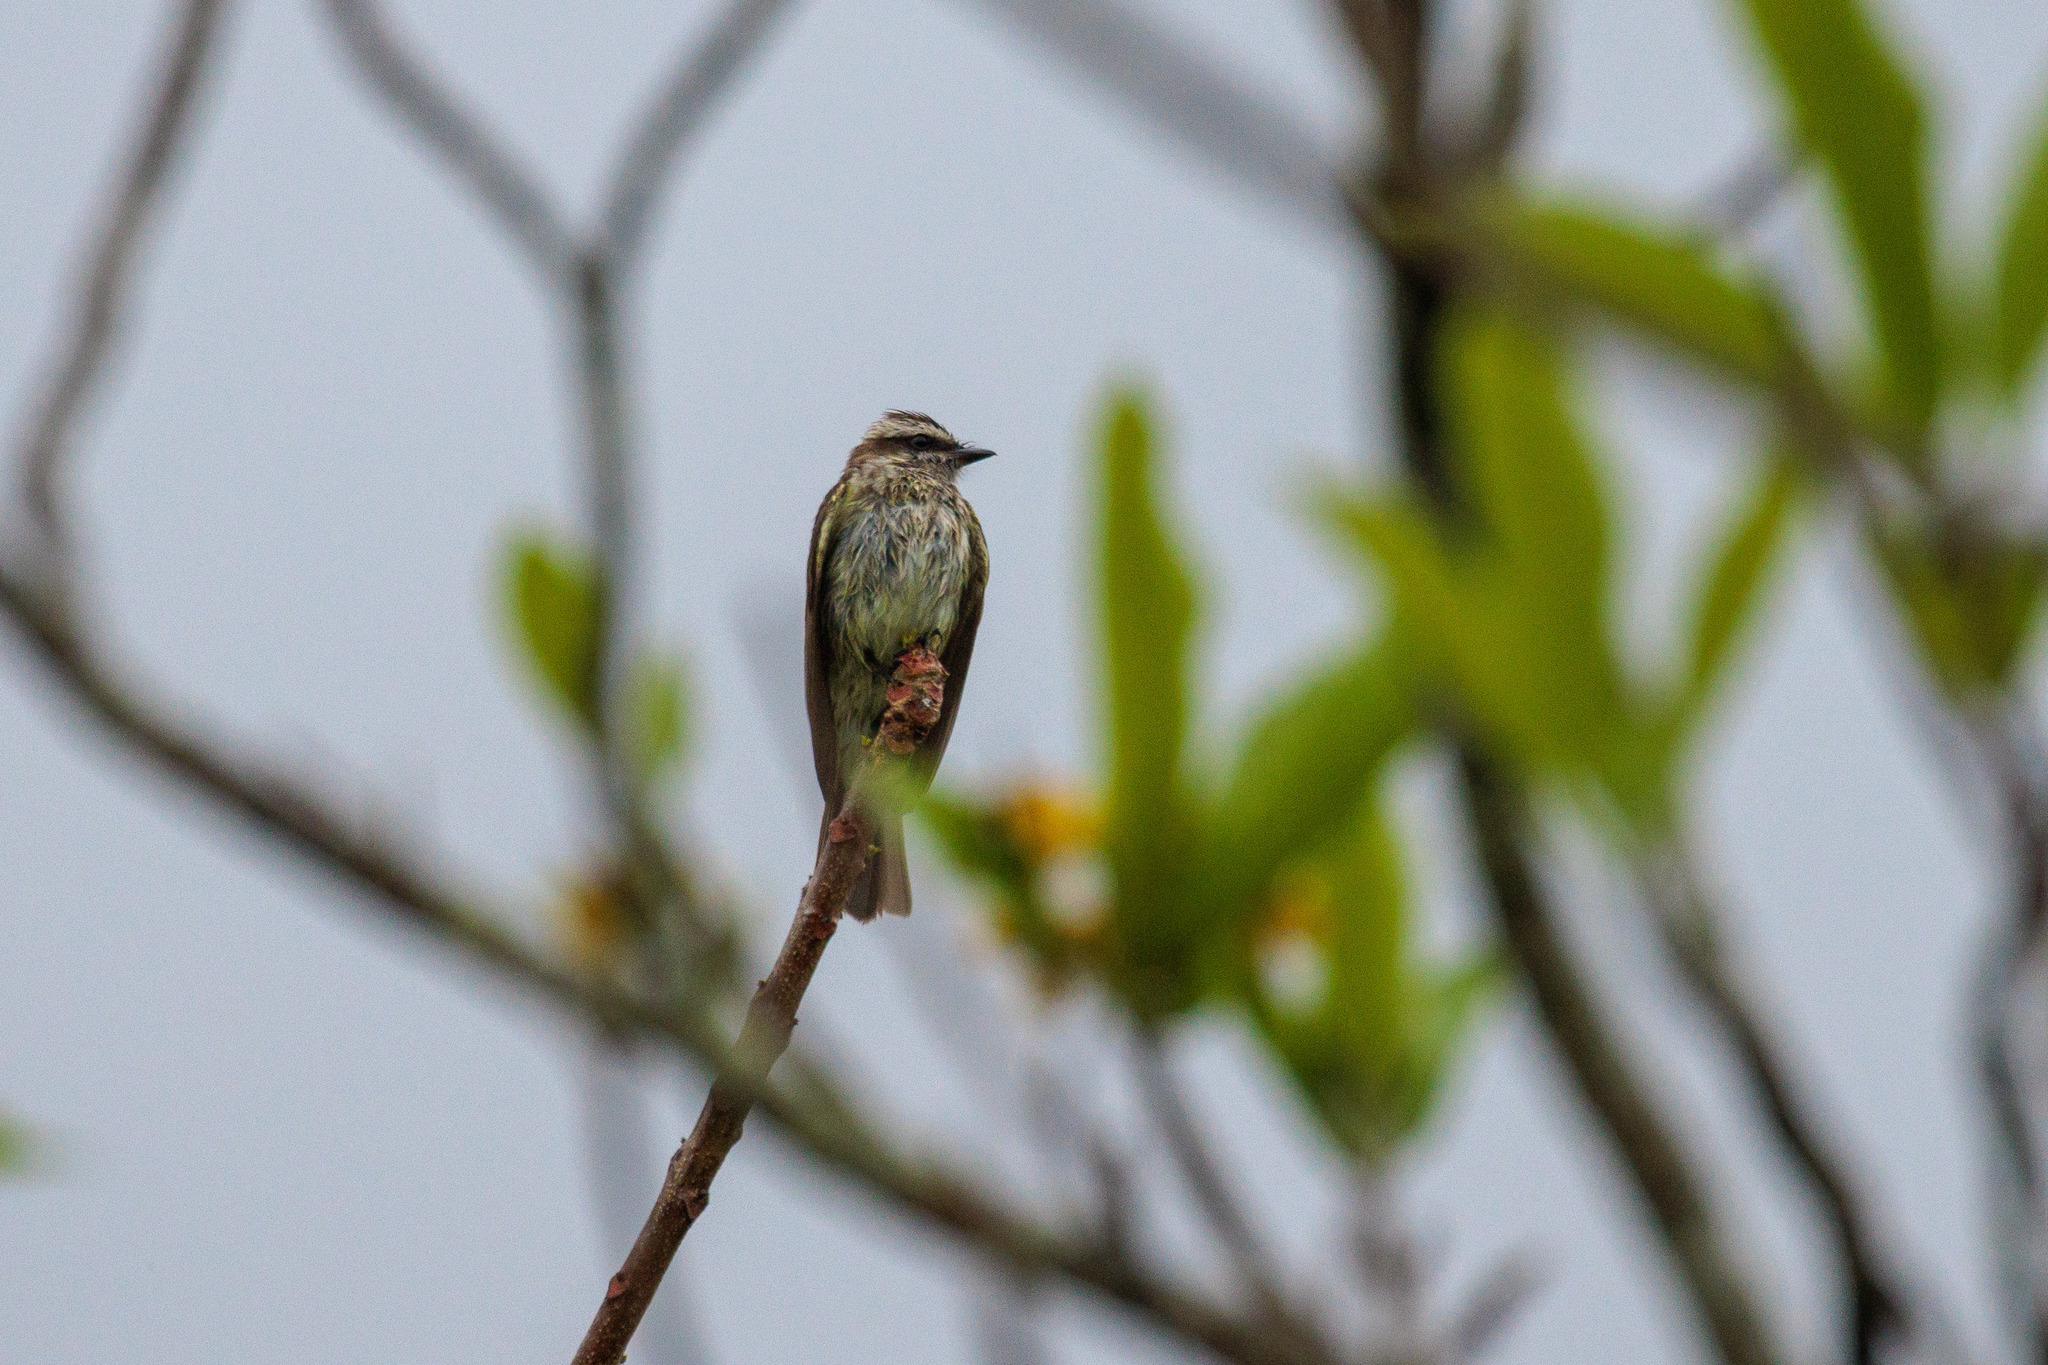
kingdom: Animalia
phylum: Chordata
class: Aves
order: Passeriformes
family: Tyrannidae
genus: Empidonomus
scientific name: Empidonomus varius
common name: Variegated flycatcher
